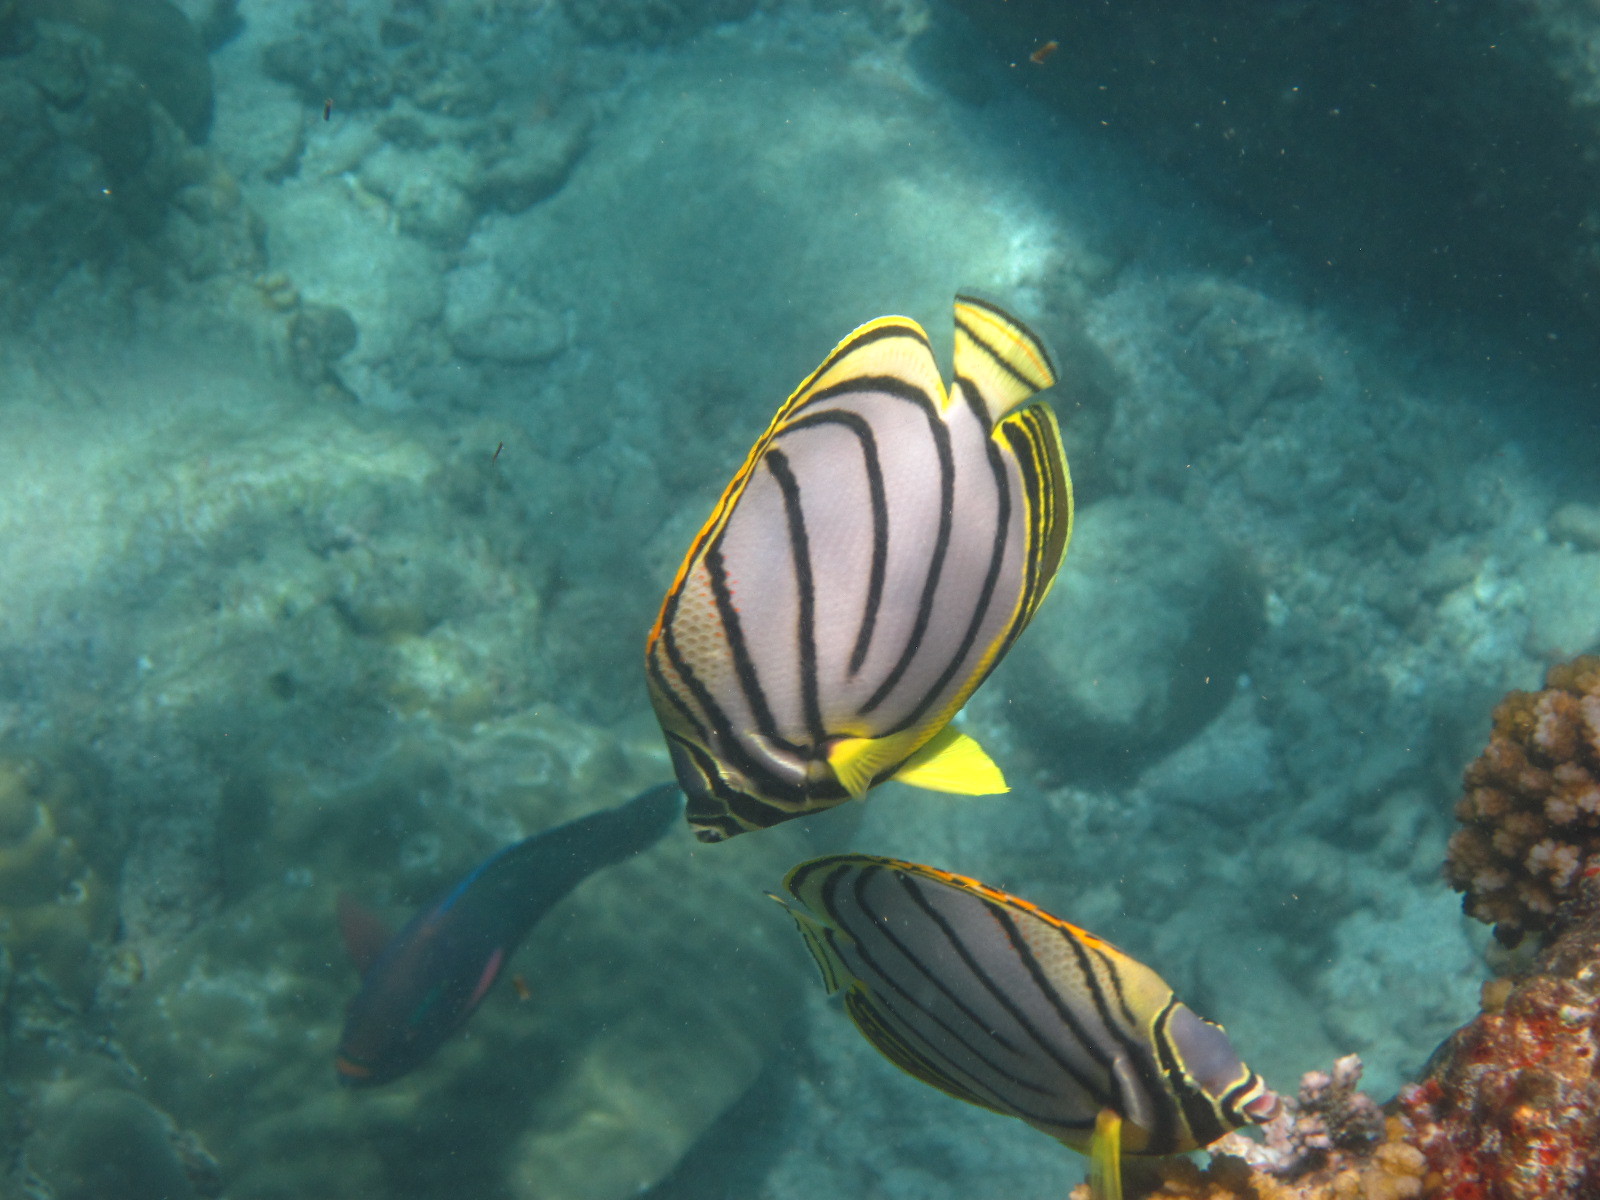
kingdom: Animalia
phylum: Chordata
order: Perciformes
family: Chaetodontidae
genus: Chaetodon
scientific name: Chaetodon meyeri
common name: Meyer's butterflyfish
